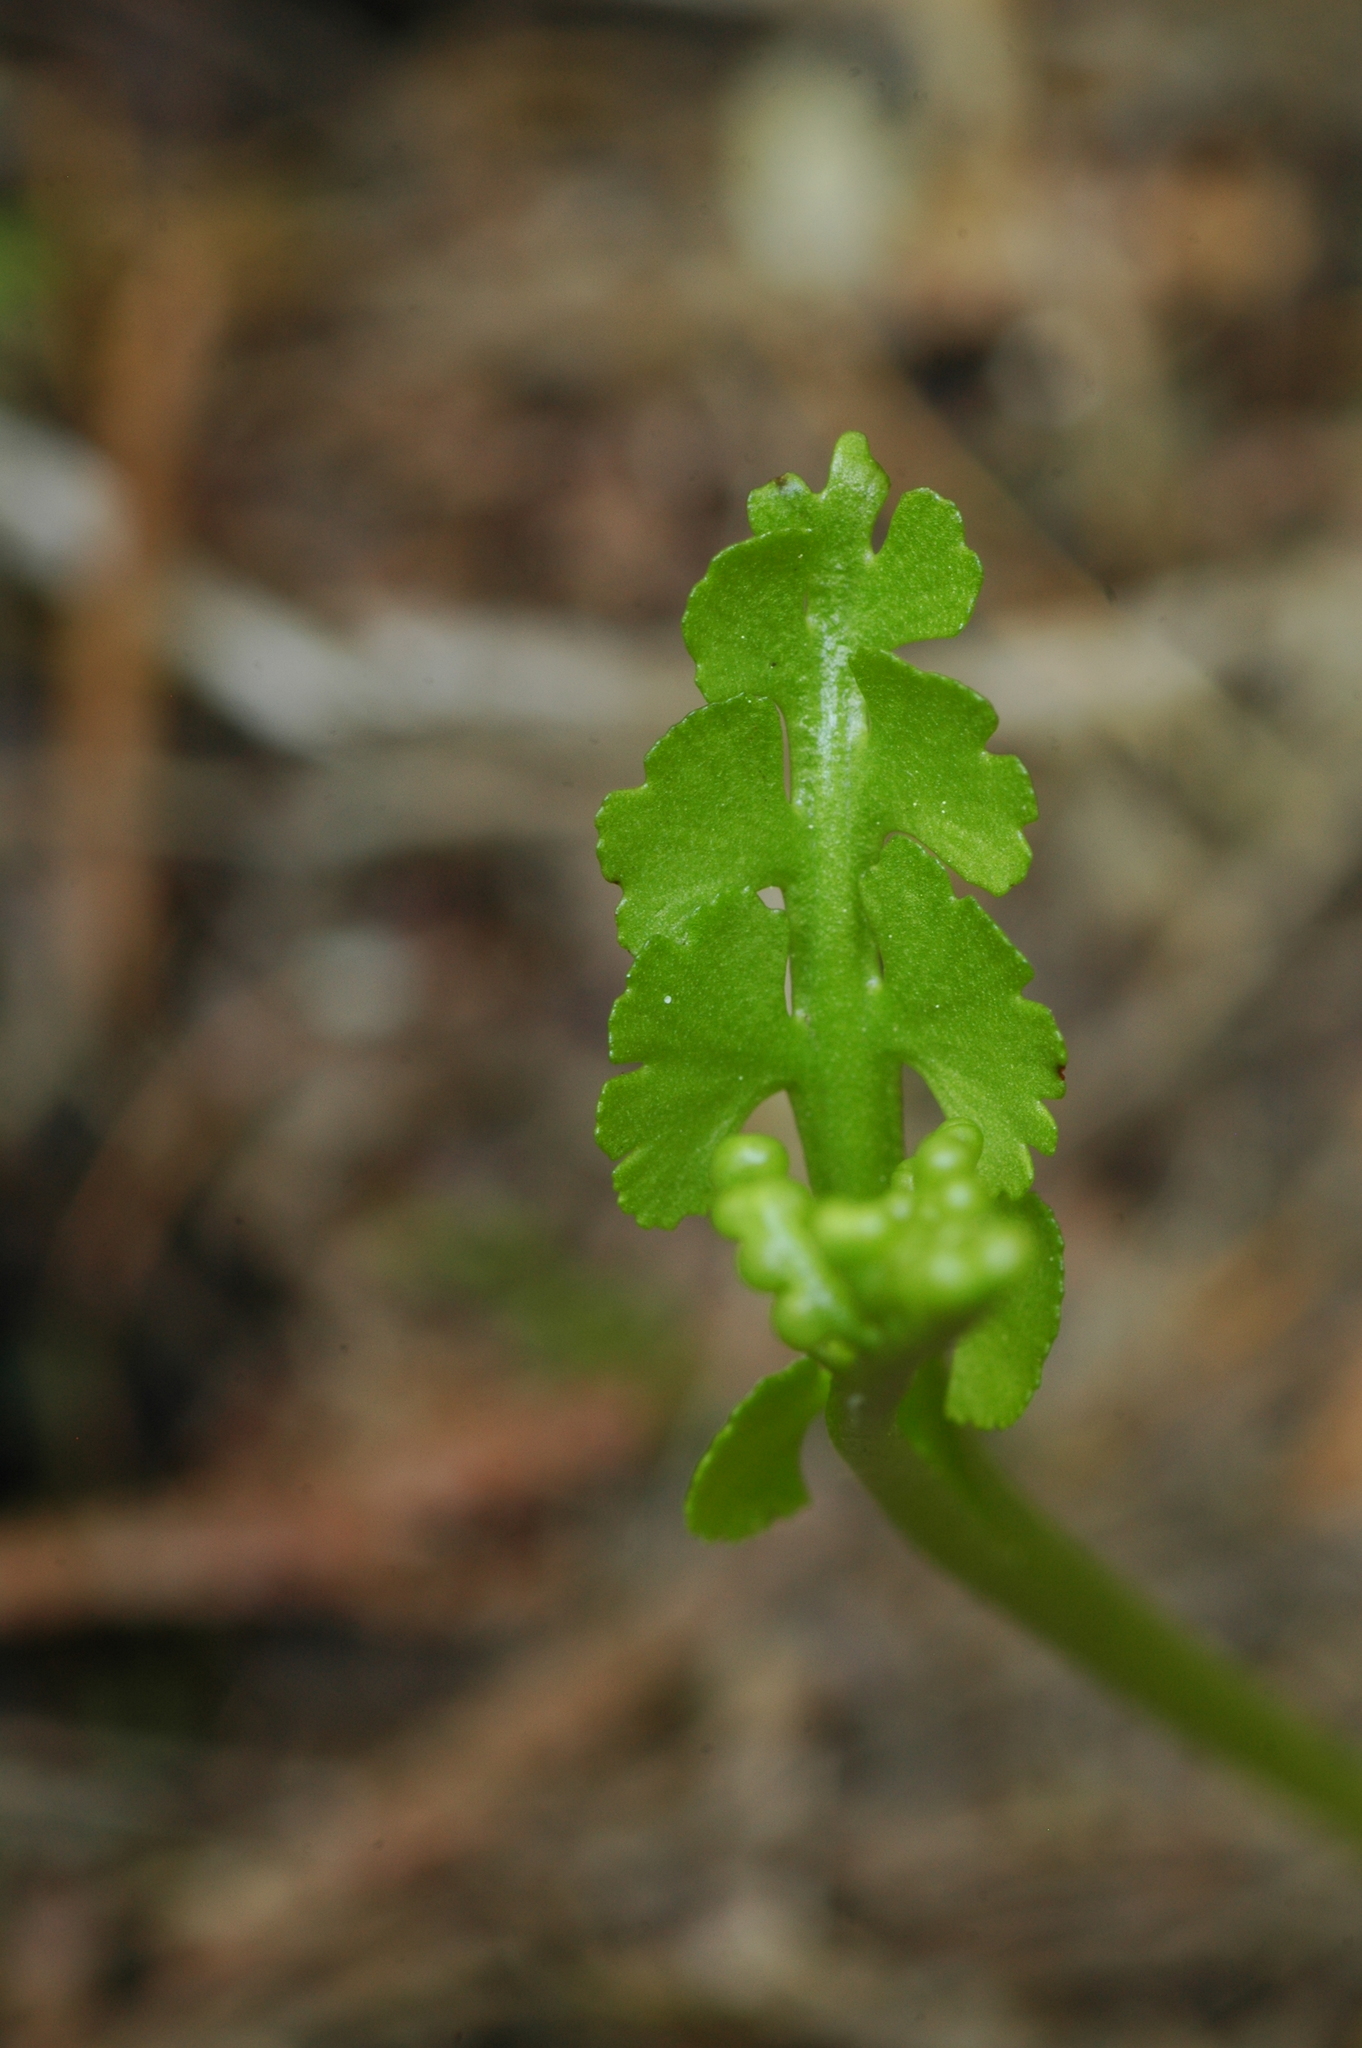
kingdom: Plantae
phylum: Tracheophyta
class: Polypodiopsida
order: Ophioglossales
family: Ophioglossaceae
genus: Botrychium
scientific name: Botrychium crenulatum
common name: Crenulate moonwort
